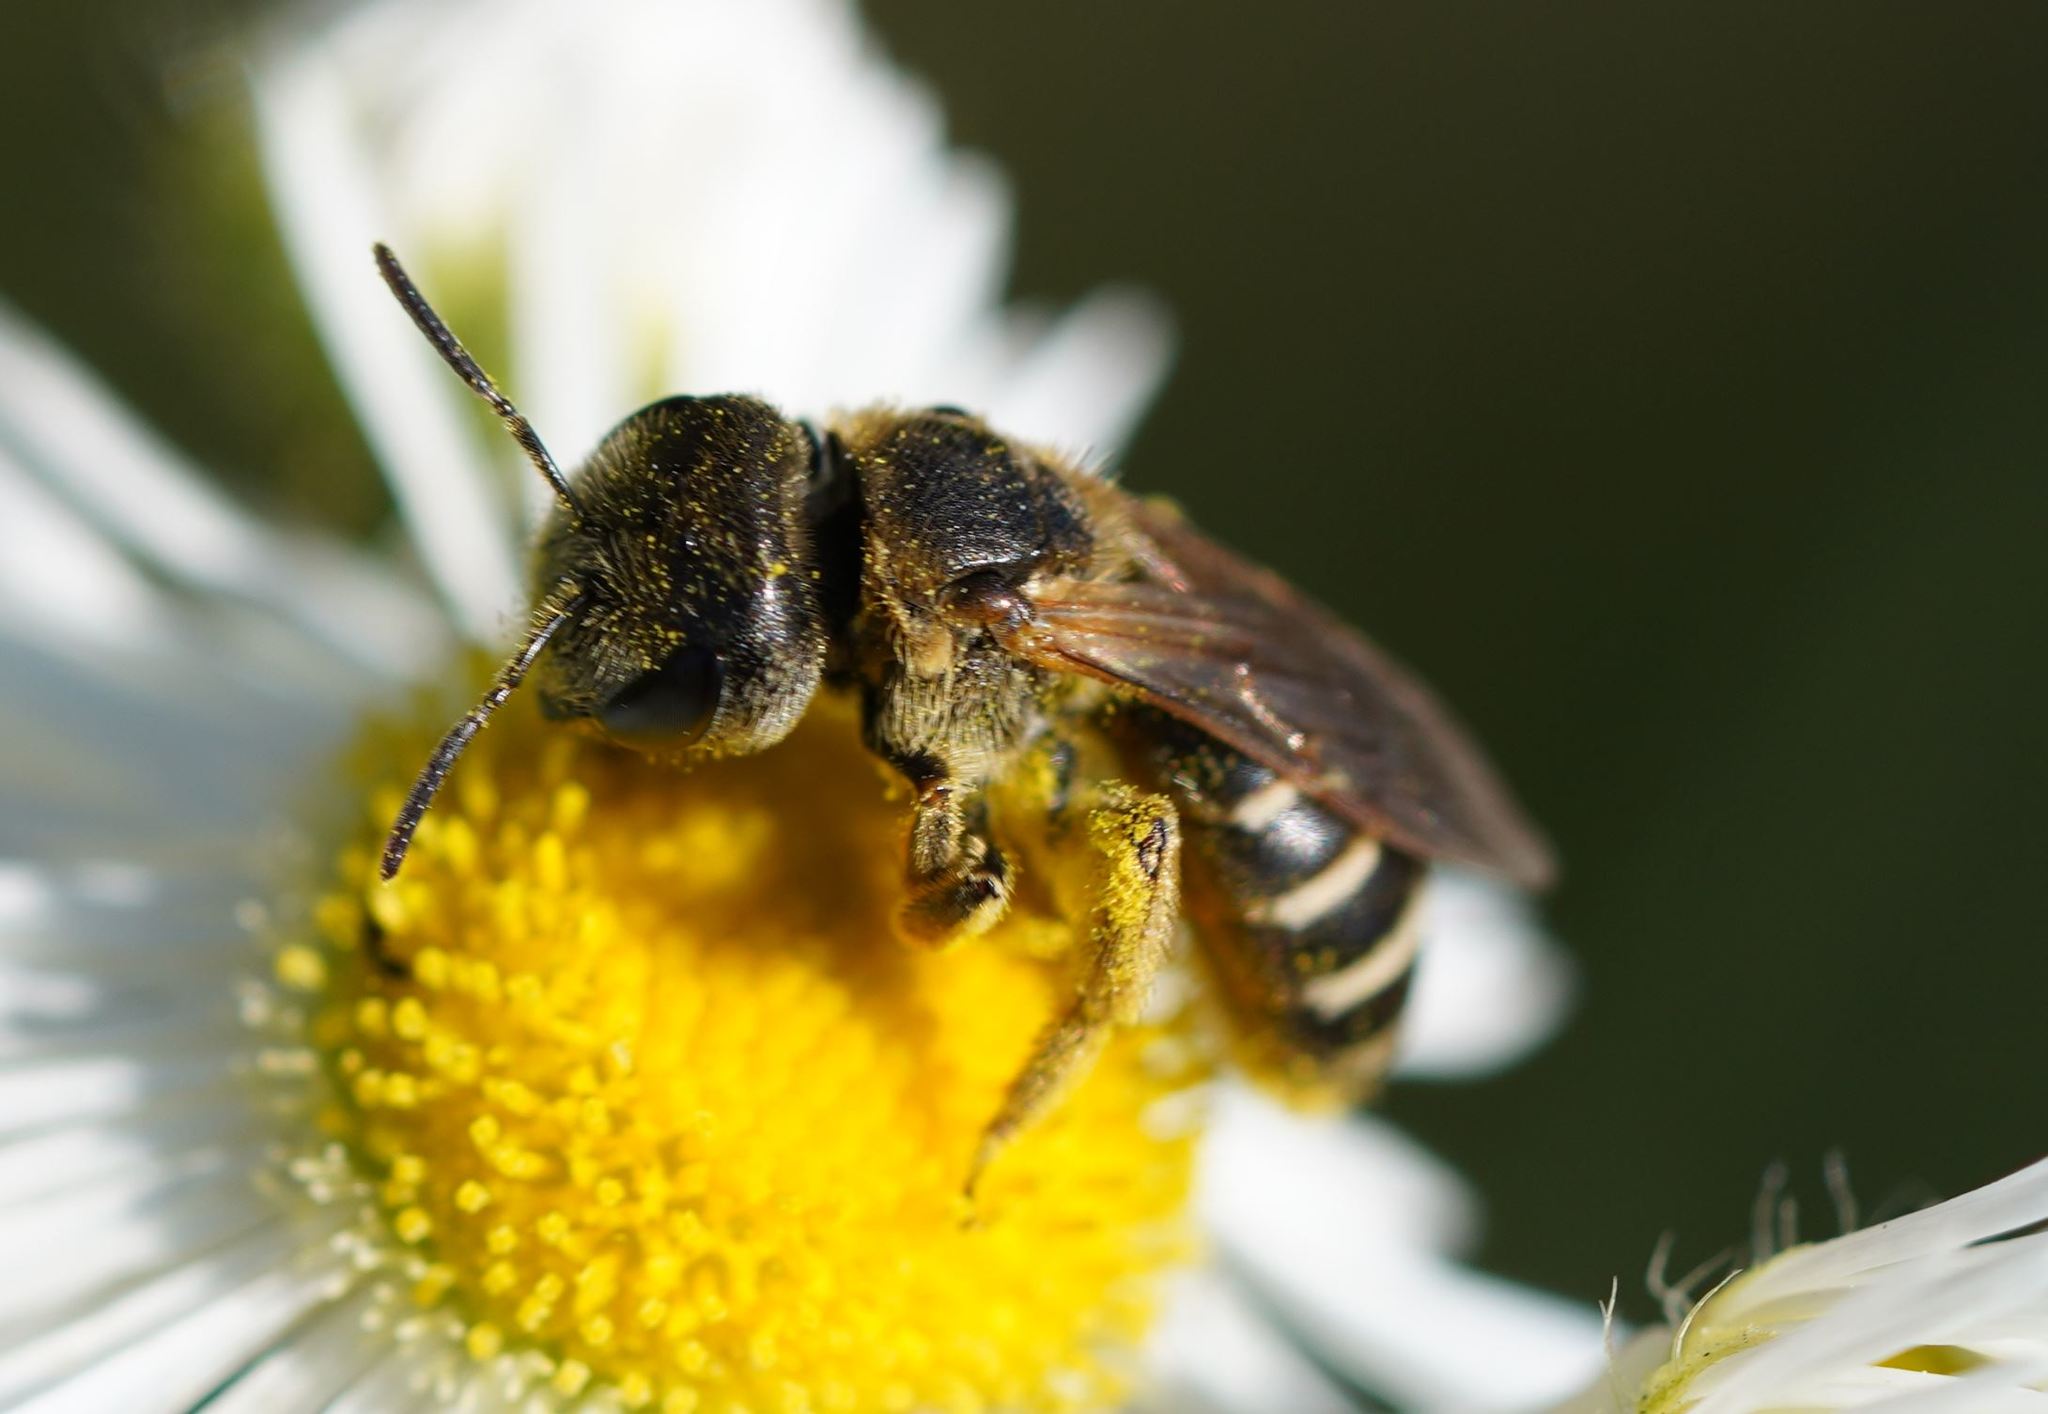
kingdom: Animalia
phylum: Arthropoda
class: Insecta
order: Hymenoptera
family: Halictidae
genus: Halictus
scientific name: Halictus ligatus
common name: Ligated furrow bee
